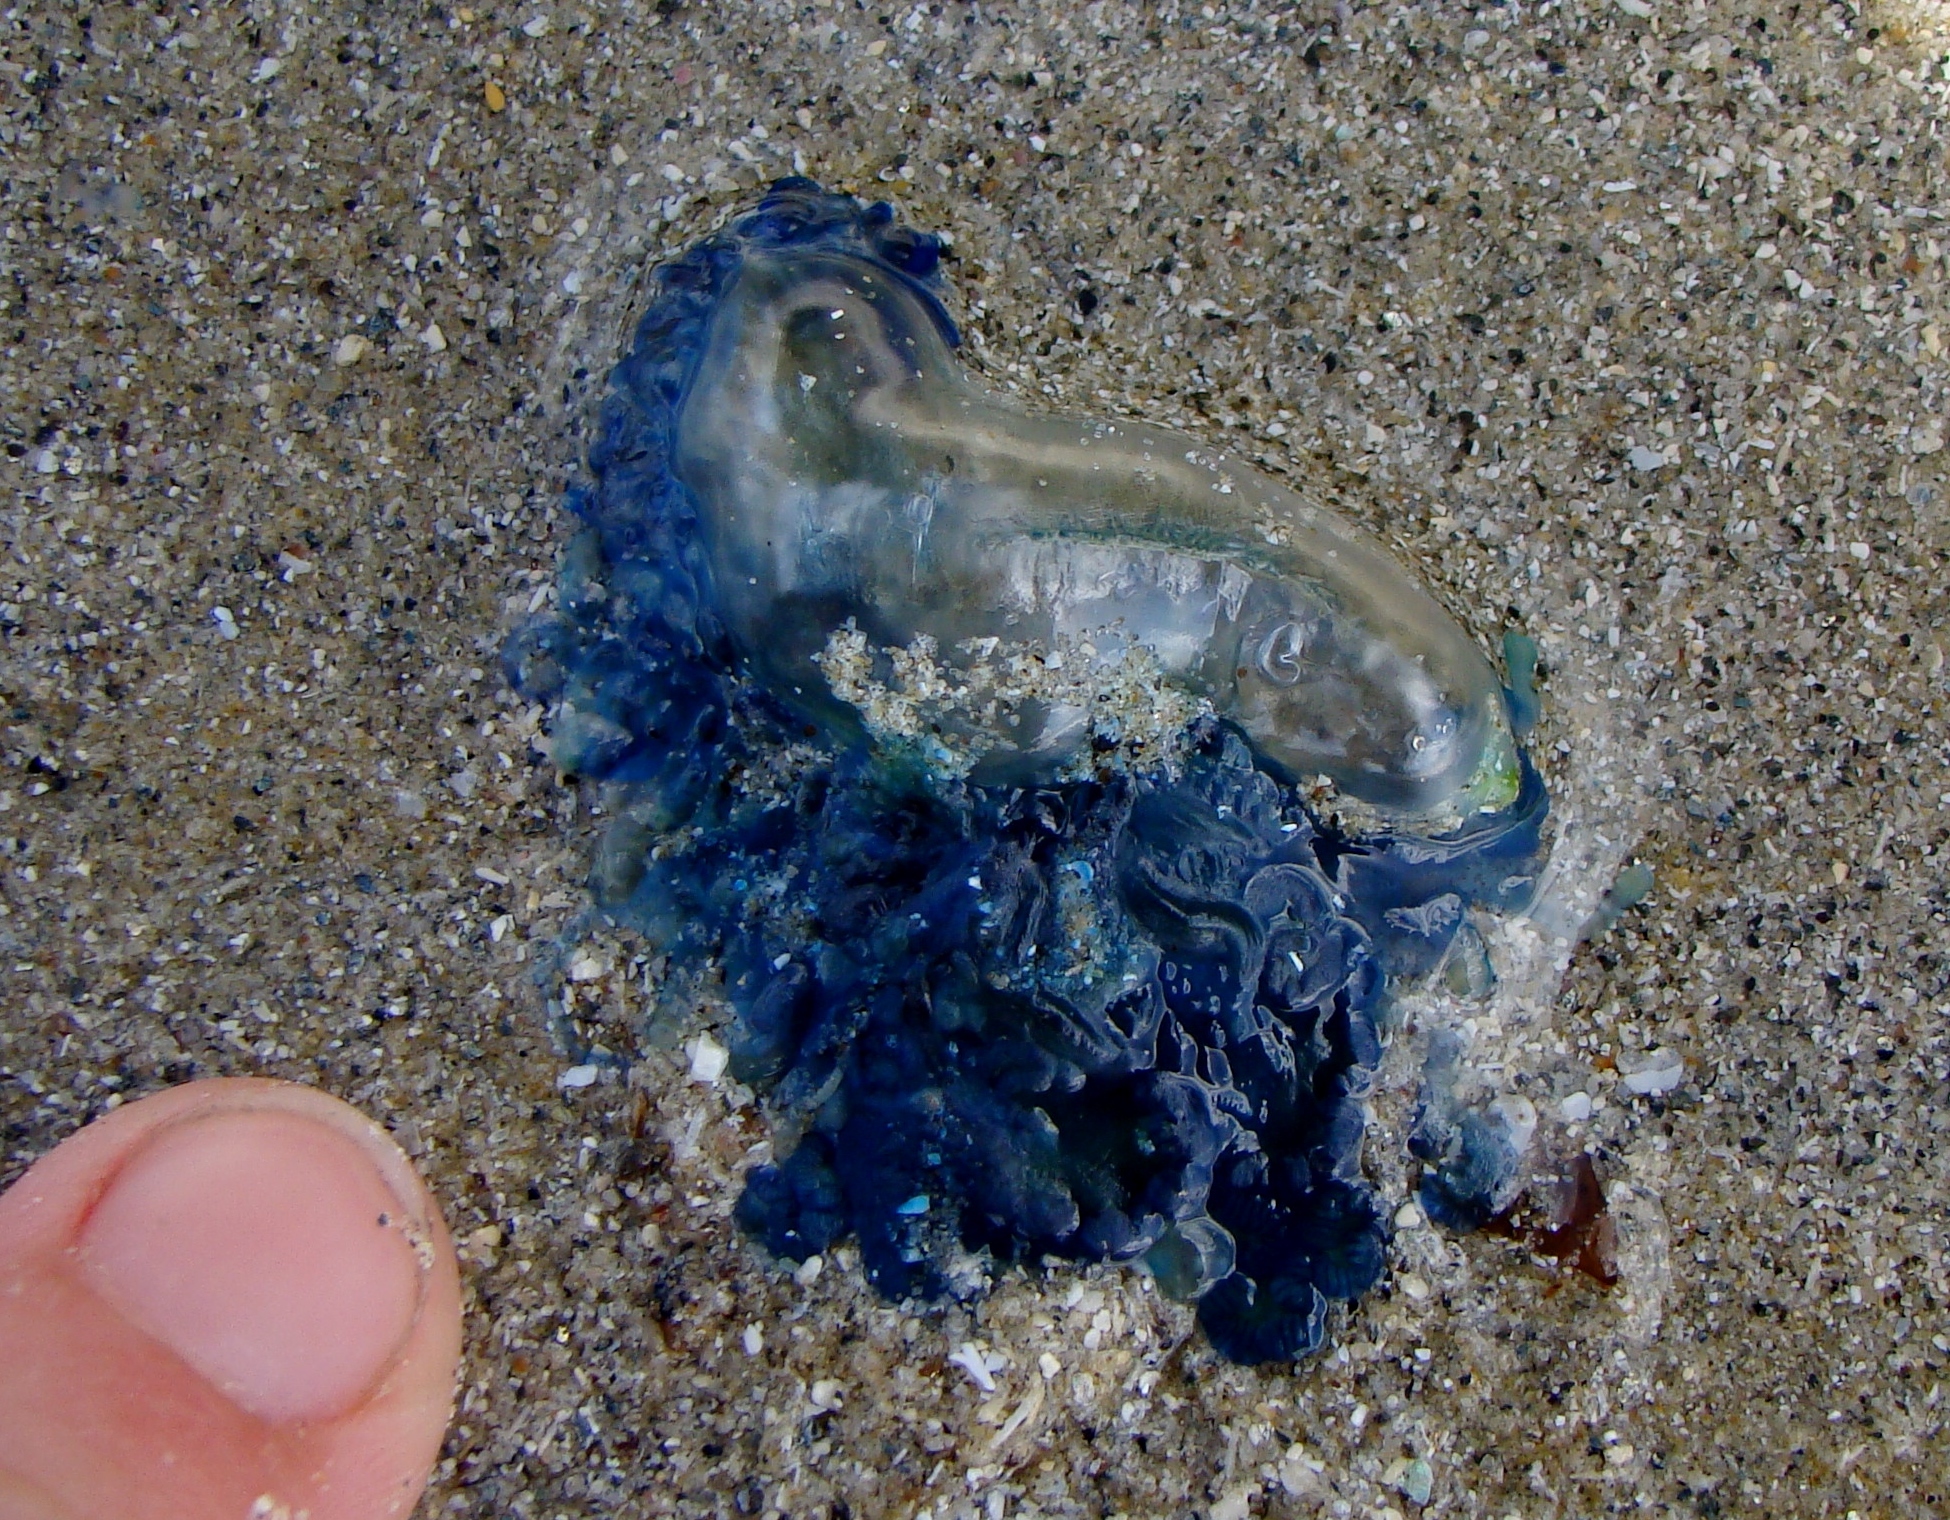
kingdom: Animalia
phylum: Cnidaria
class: Hydrozoa
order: Siphonophorae
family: Physaliidae
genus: Physalia
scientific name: Physalia physalis
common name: Portuguese man-of-war
